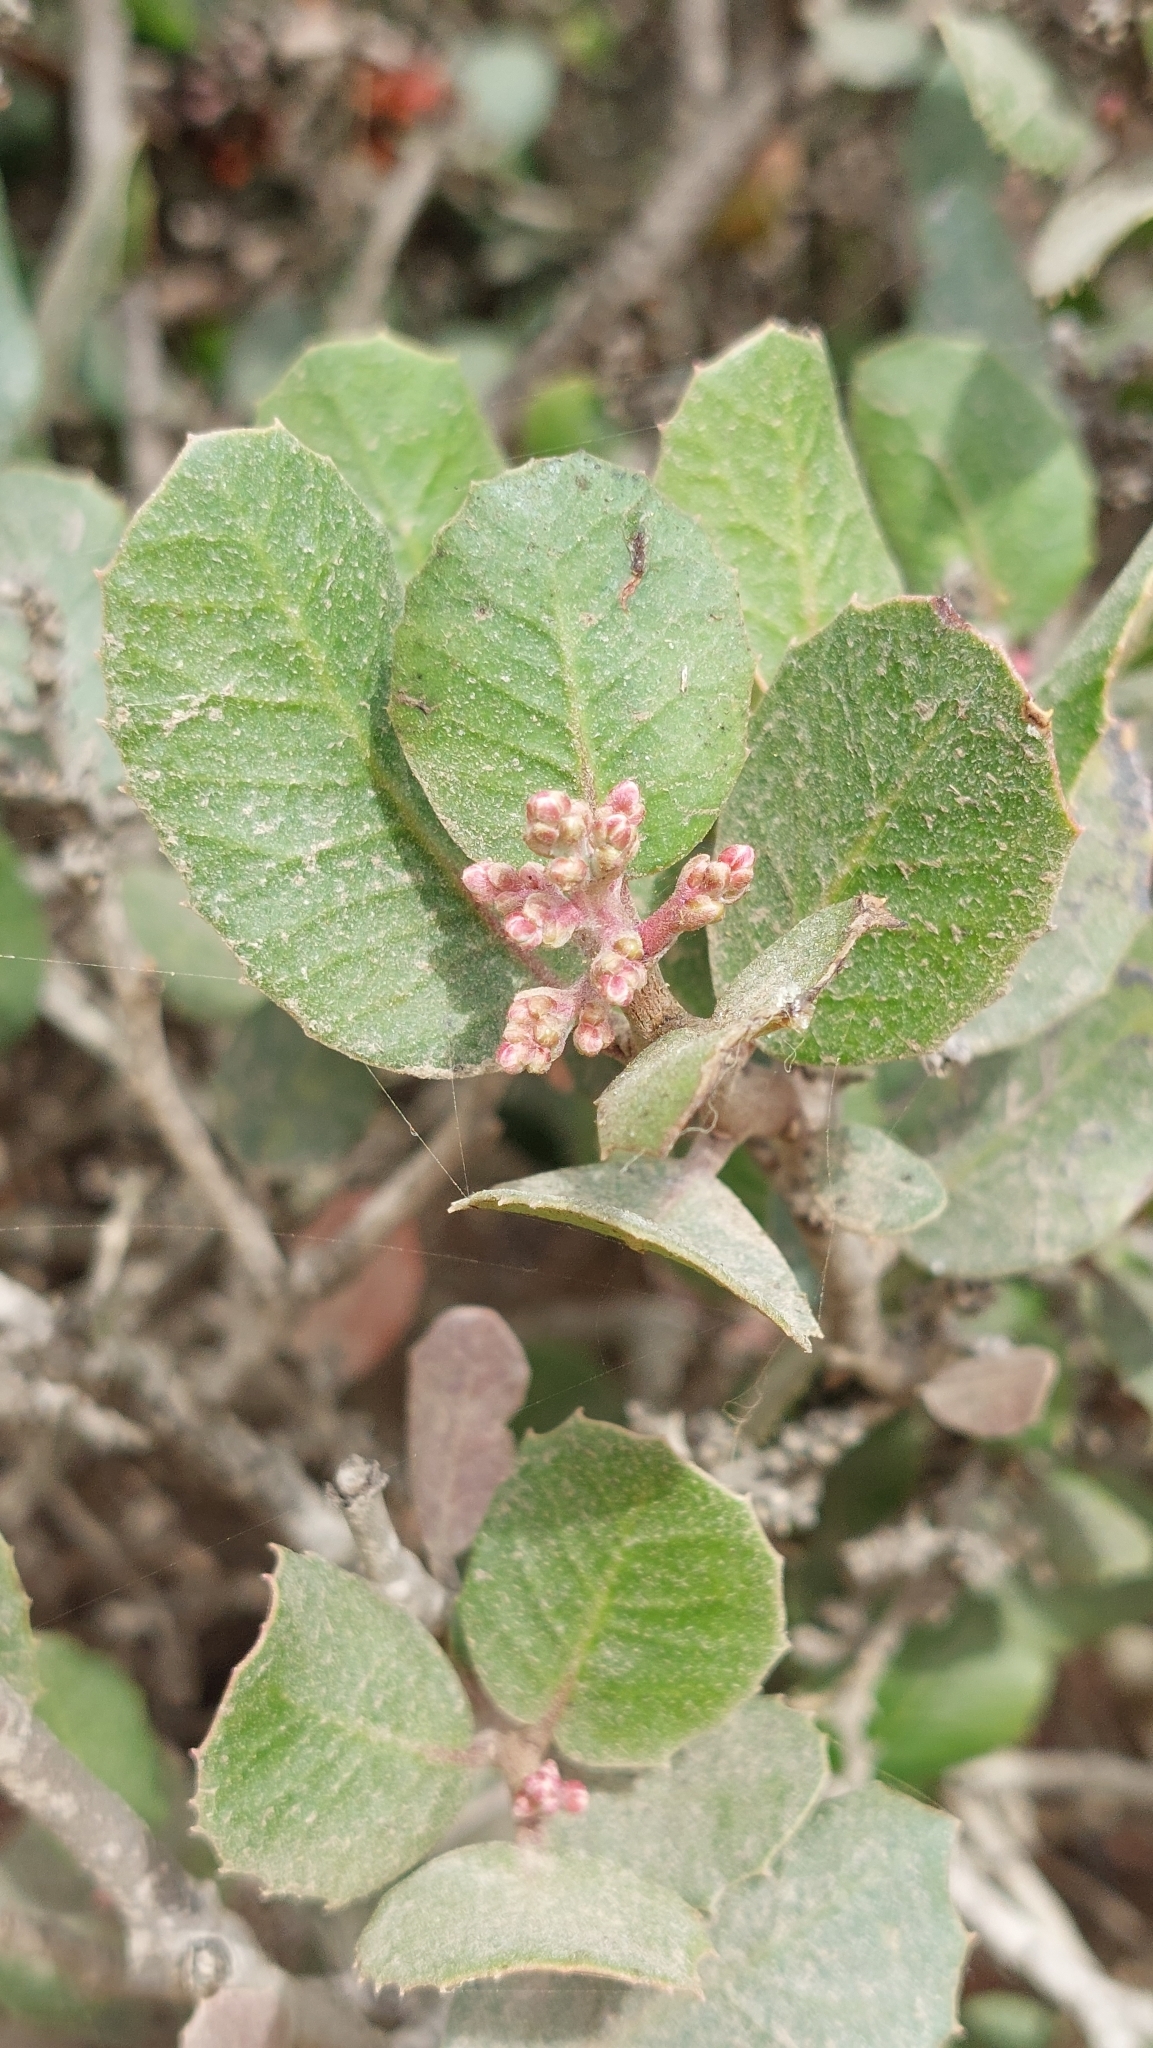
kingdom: Plantae
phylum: Tracheophyta
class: Magnoliopsida
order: Sapindales
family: Anacardiaceae
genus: Rhus
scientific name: Rhus integrifolia
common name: Lemonade sumac
